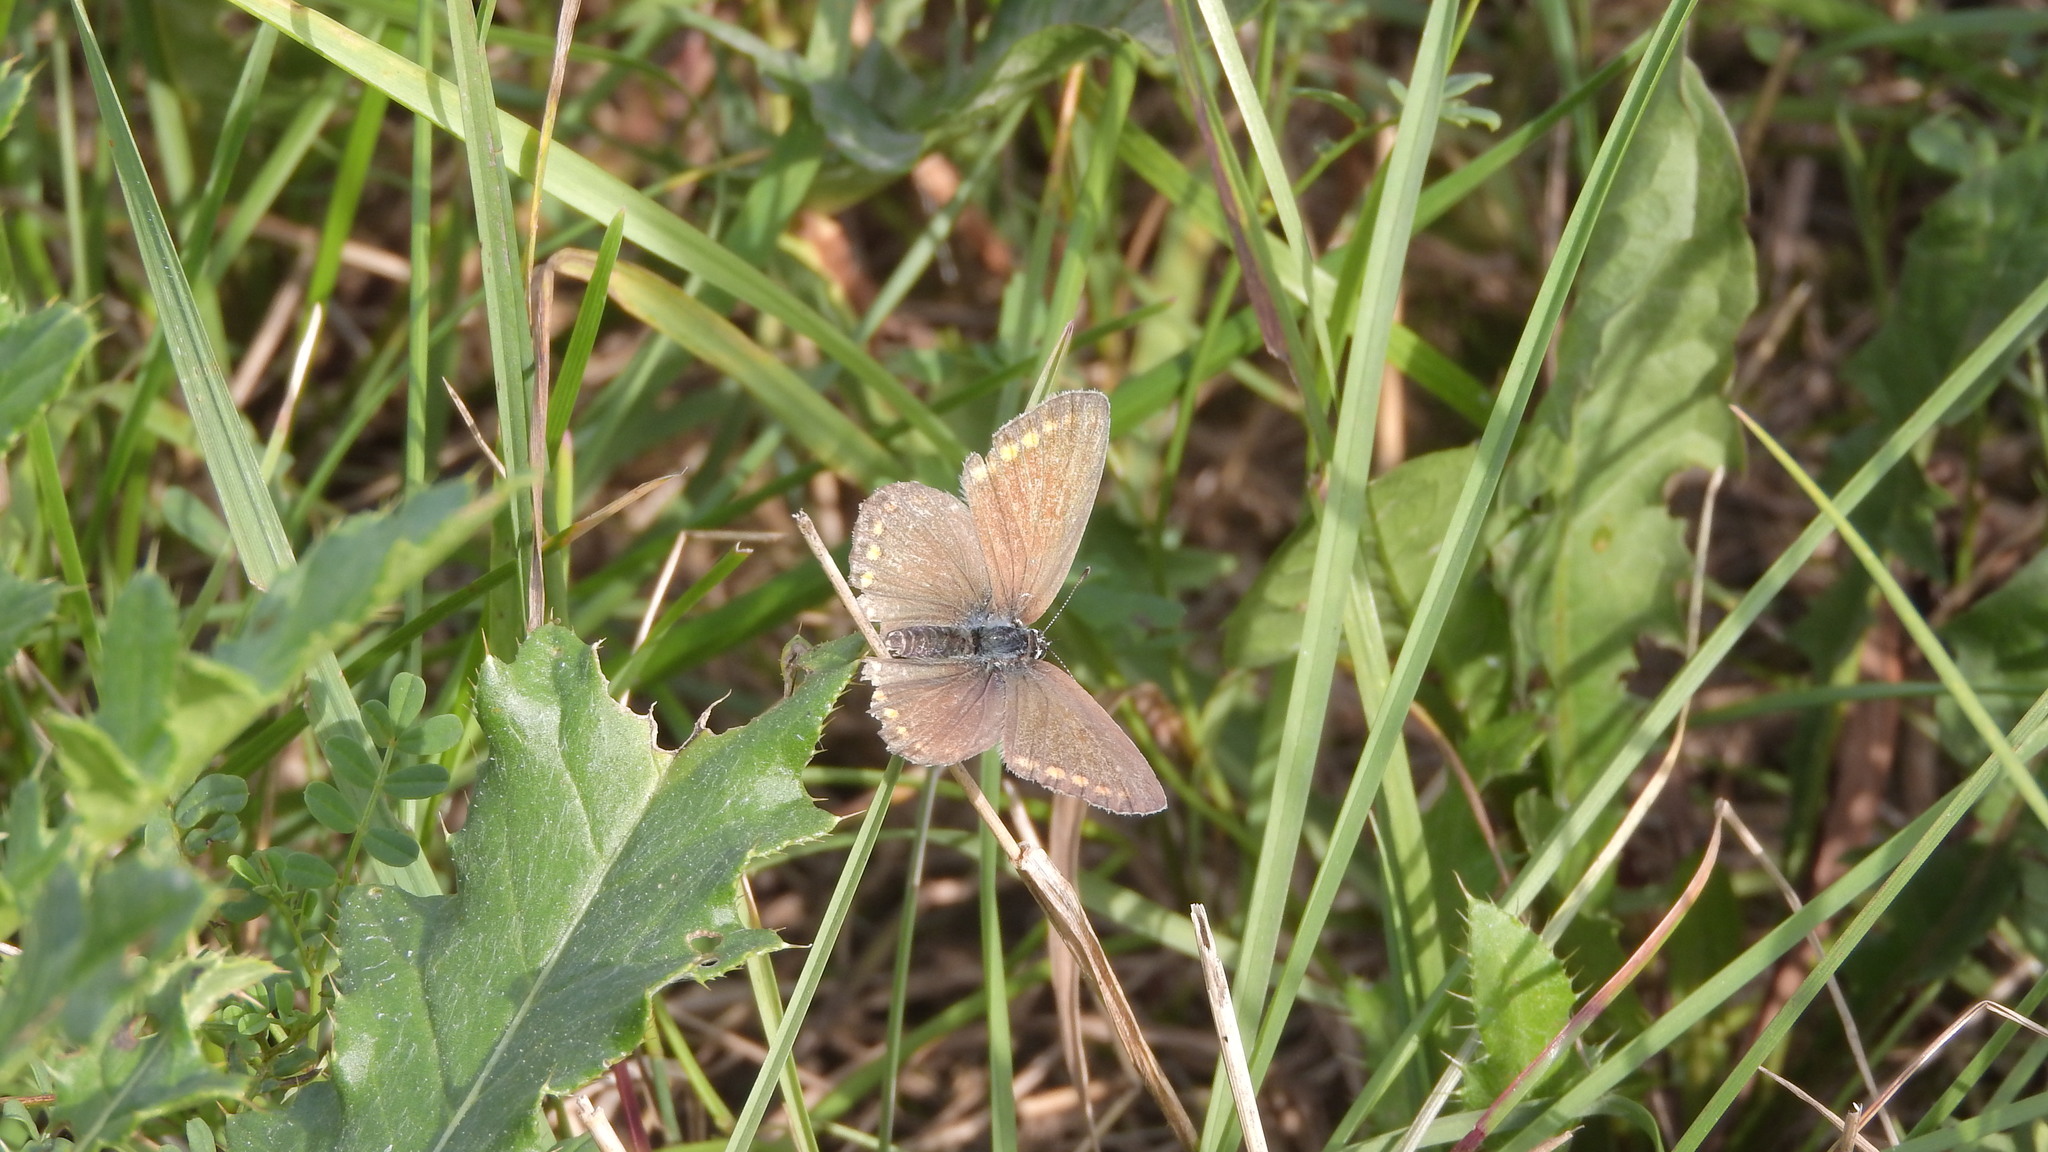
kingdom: Animalia
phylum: Arthropoda
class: Insecta
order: Lepidoptera
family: Lycaenidae
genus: Polyommatus
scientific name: Polyommatus icarus
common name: Common blue
